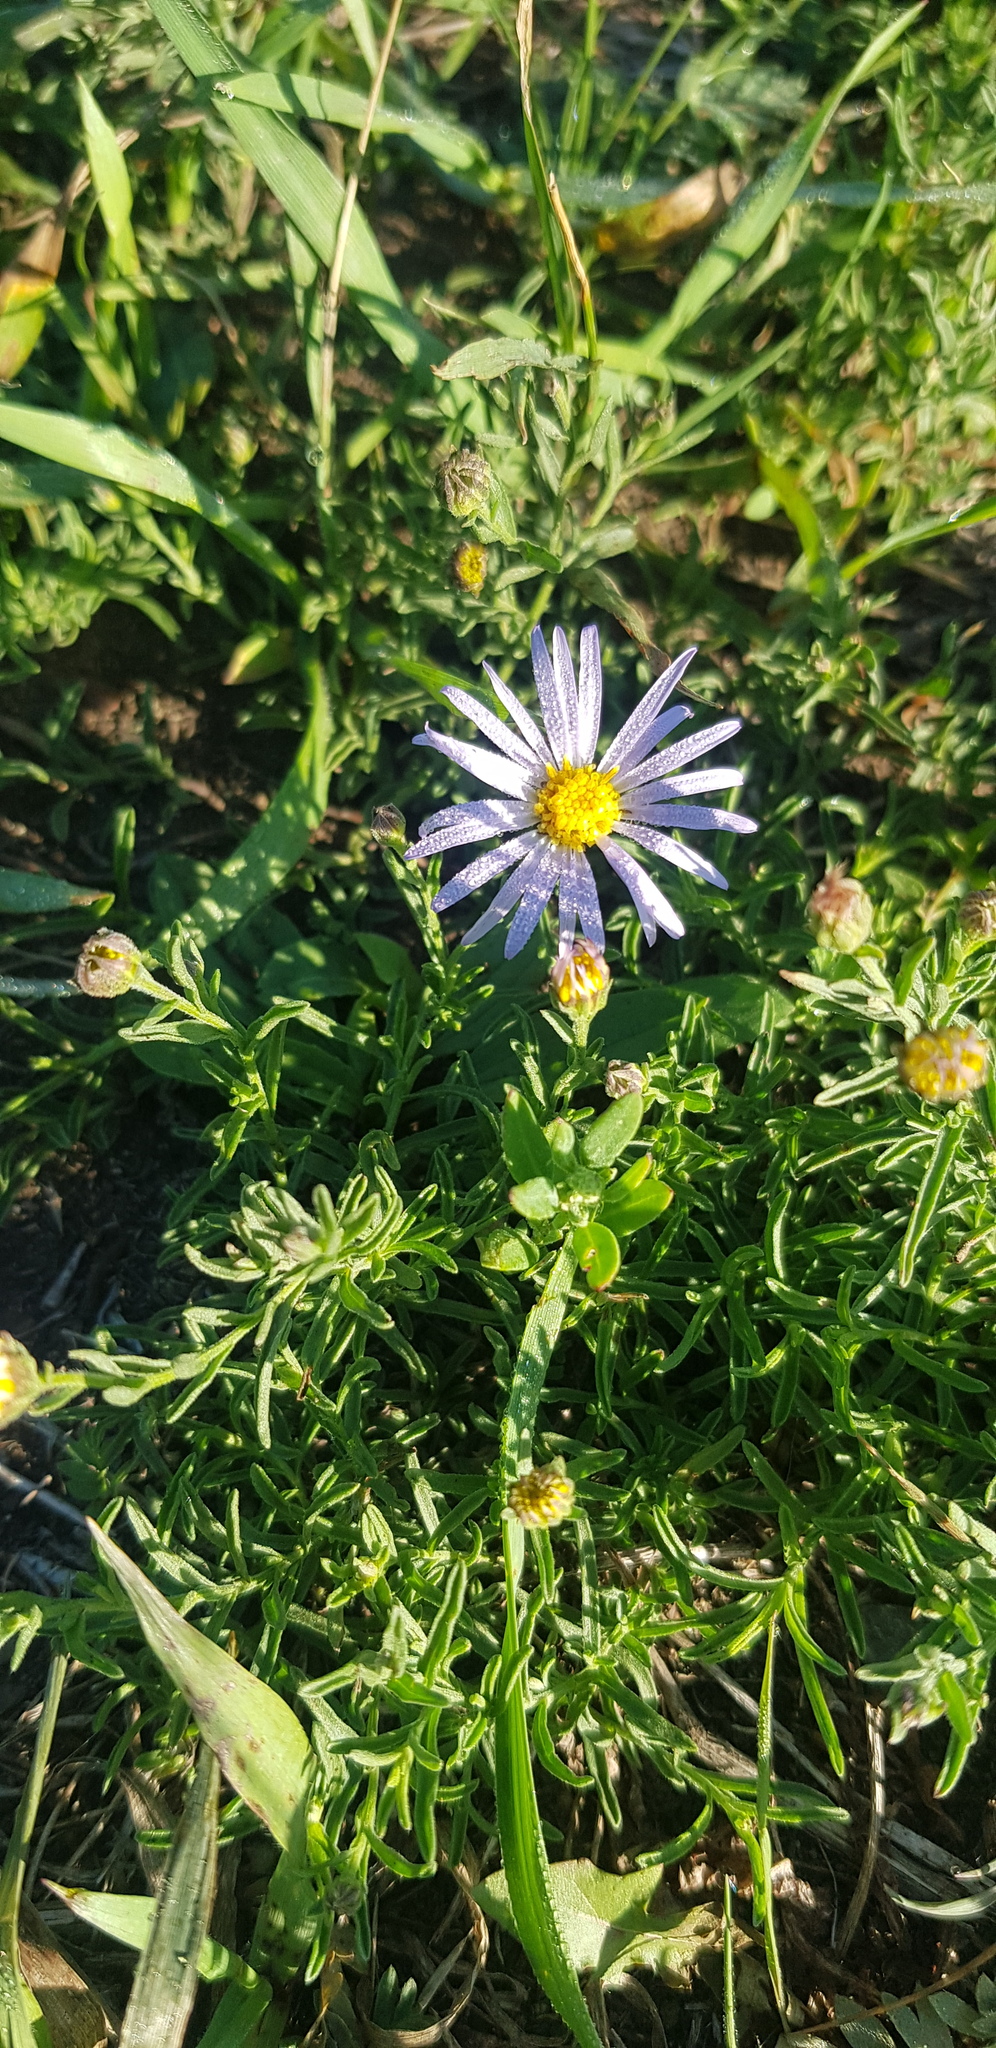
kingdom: Plantae
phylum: Tracheophyta
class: Magnoliopsida
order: Asterales
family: Asteraceae
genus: Heteropappus
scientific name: Heteropappus altaicus
